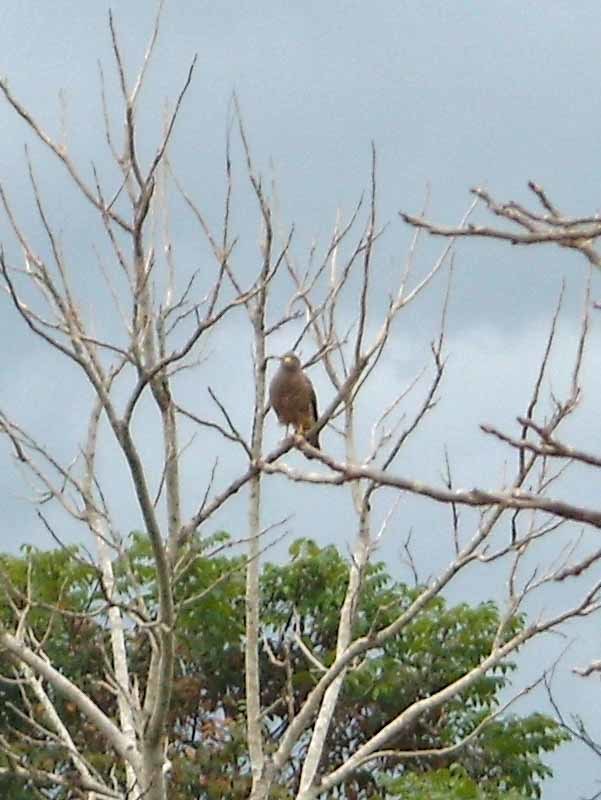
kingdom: Animalia
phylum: Chordata
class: Aves
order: Accipitriformes
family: Accipitridae
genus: Rupornis
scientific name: Rupornis magnirostris
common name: Roadside hawk
